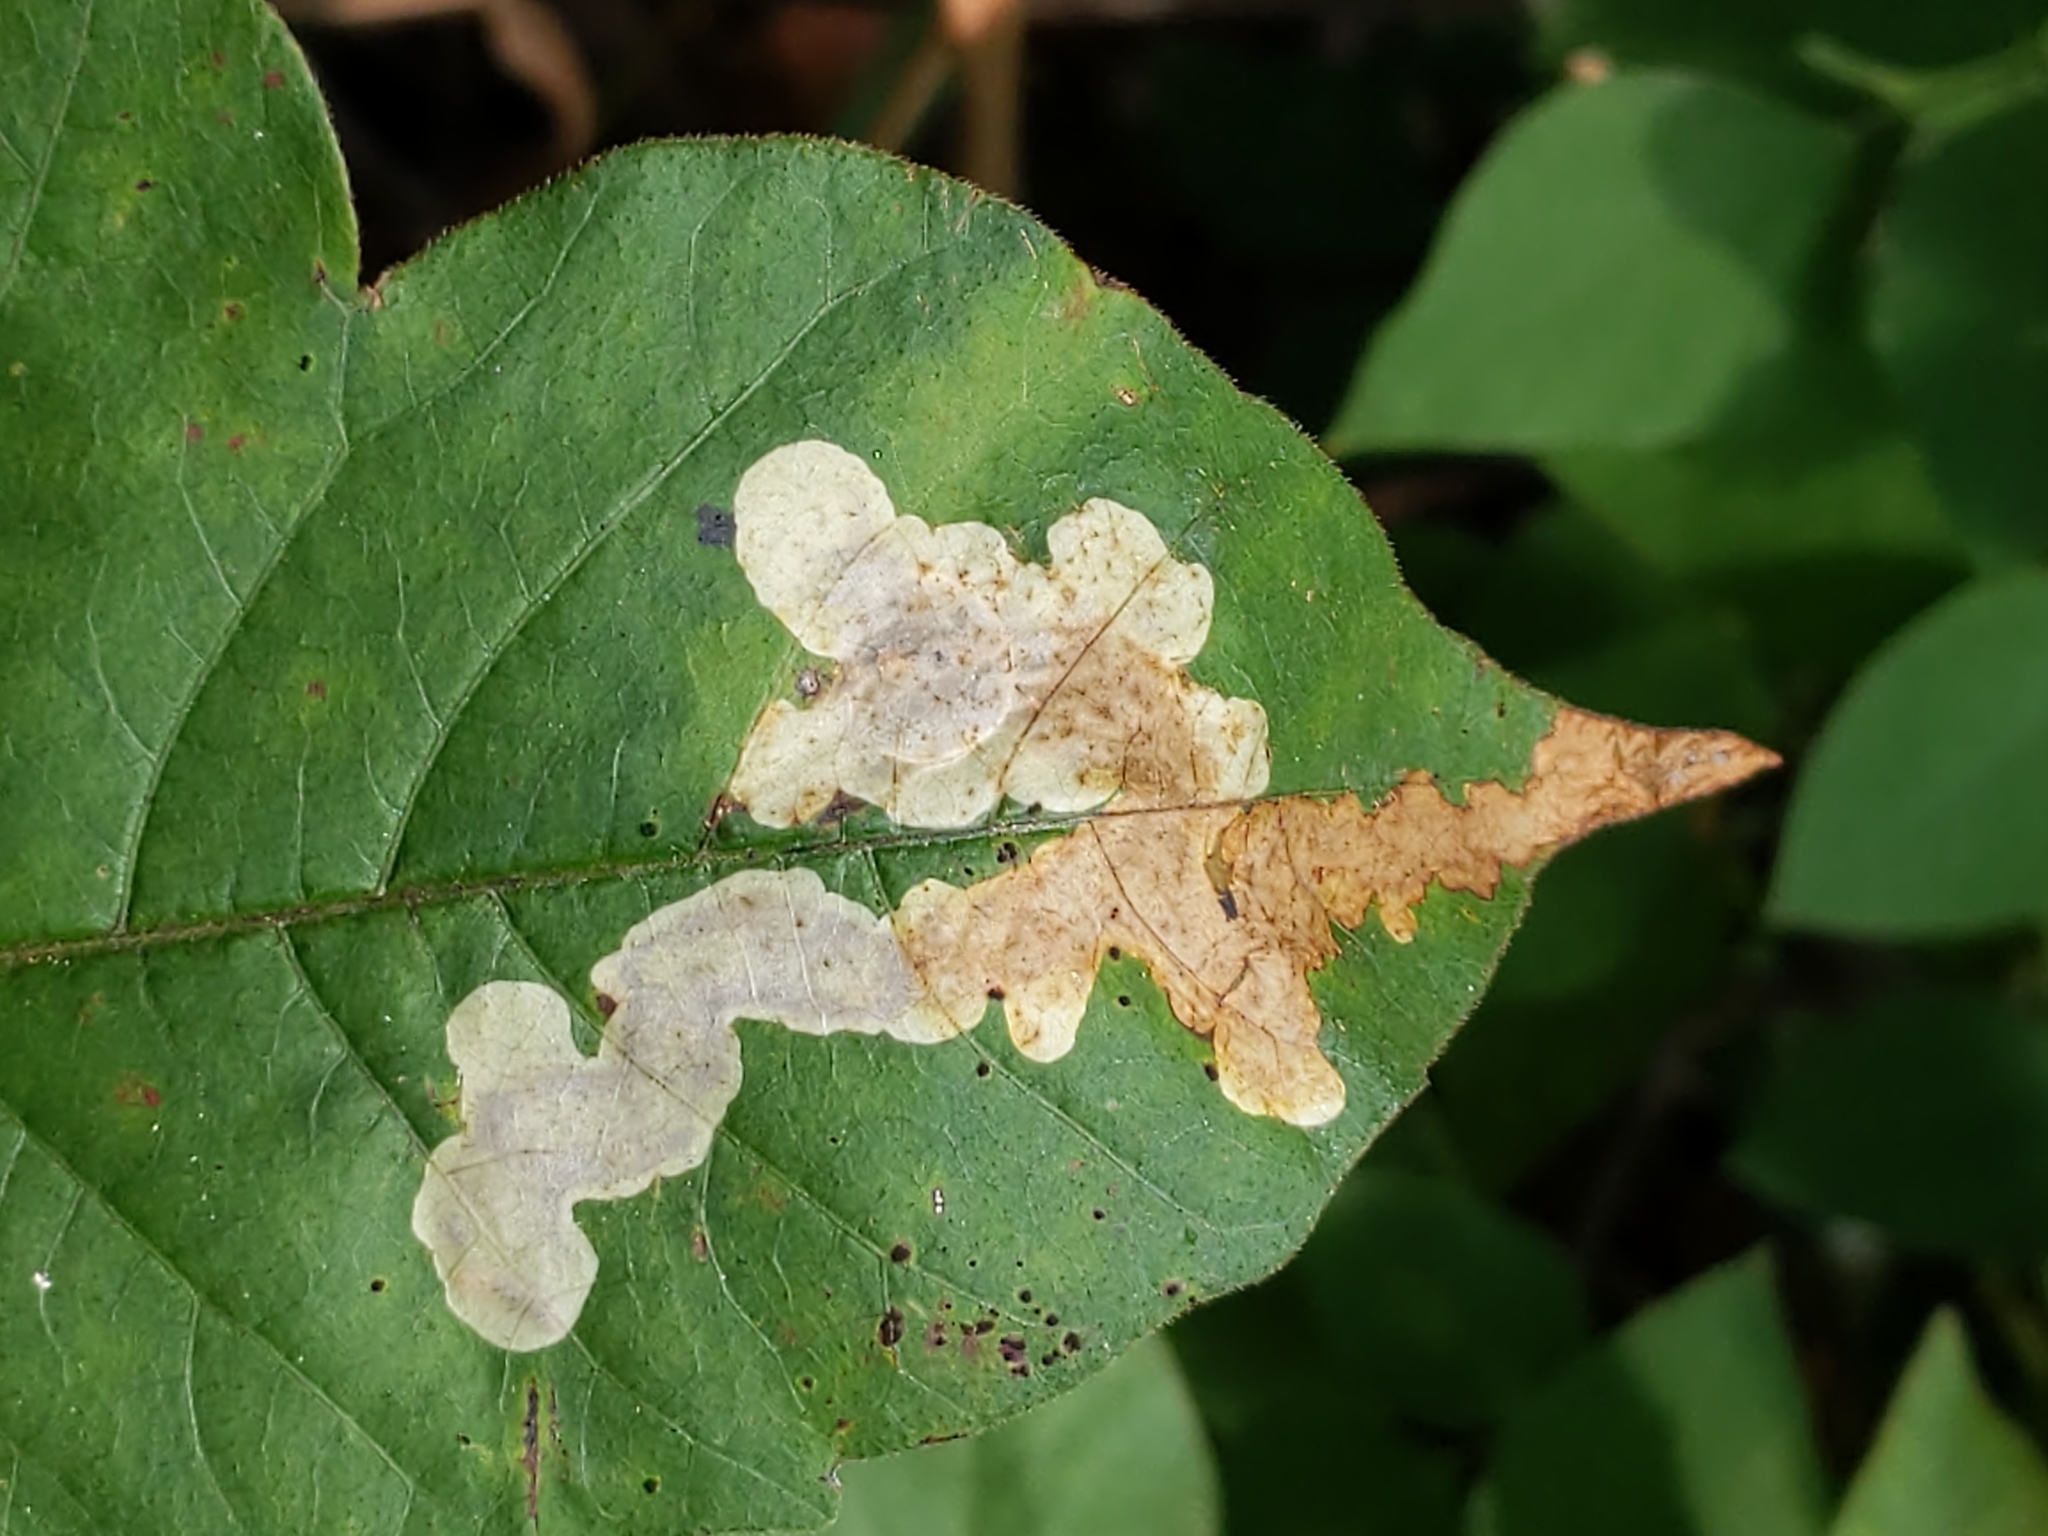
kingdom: Animalia
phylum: Arthropoda
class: Insecta
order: Lepidoptera
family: Gracillariidae
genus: Cameraria
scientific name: Cameraria guttifinitella
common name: Poison ivy leaf-miner moth
